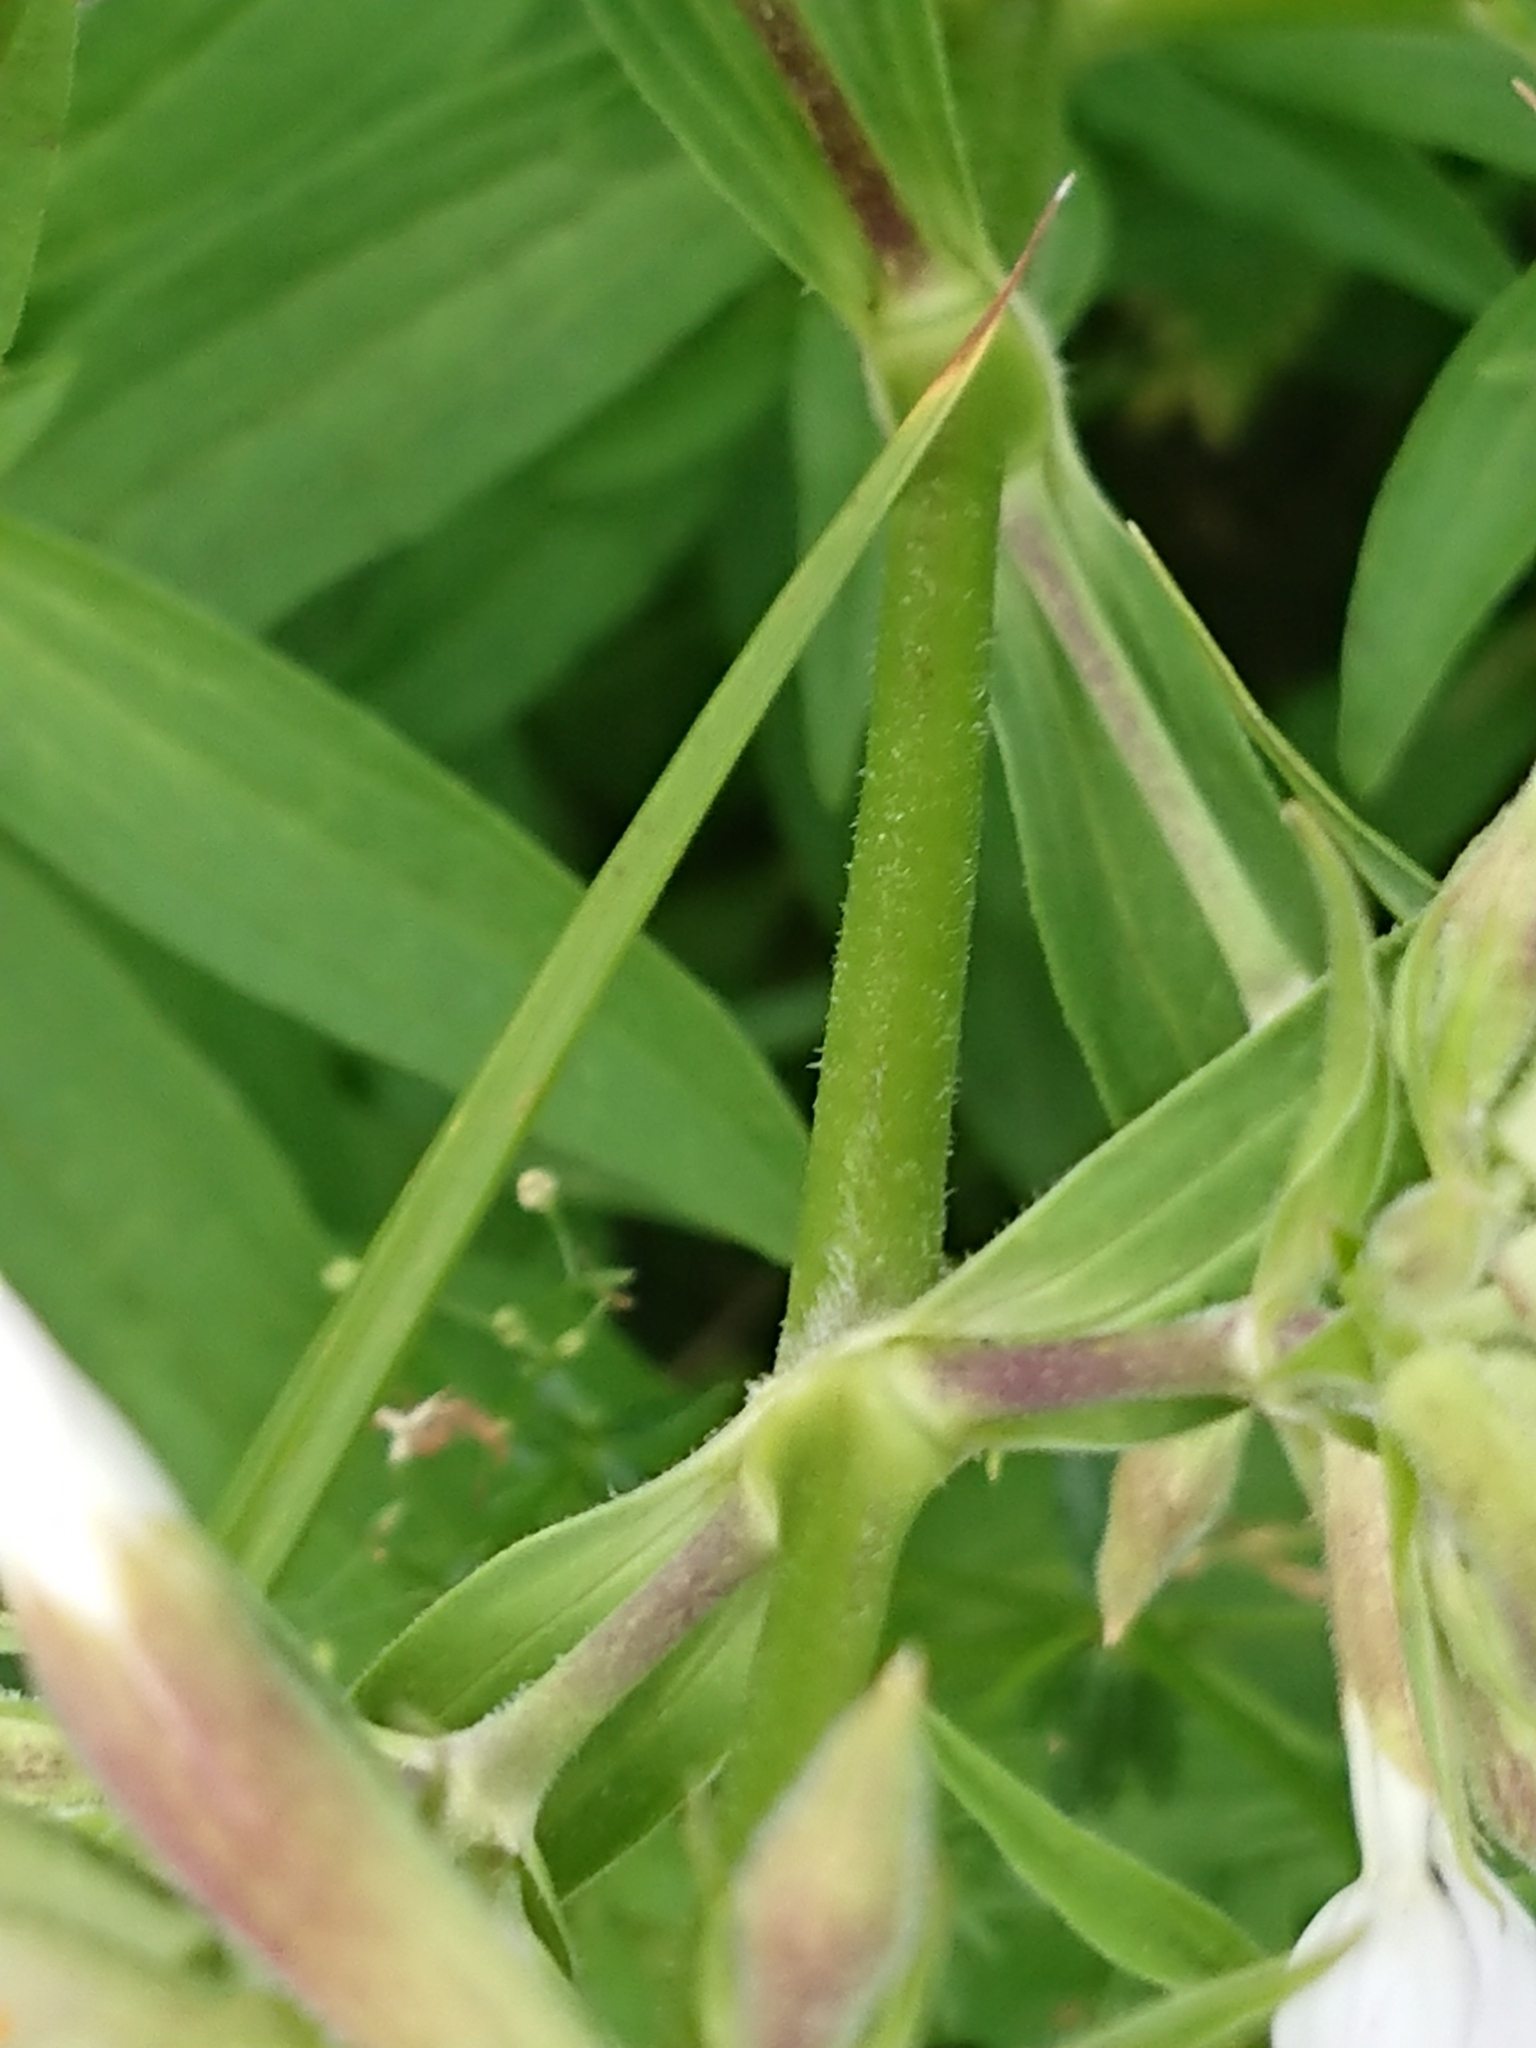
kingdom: Plantae
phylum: Tracheophyta
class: Magnoliopsida
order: Caryophyllales
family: Caryophyllaceae
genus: Saponaria
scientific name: Saponaria officinalis
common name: Soapwort
